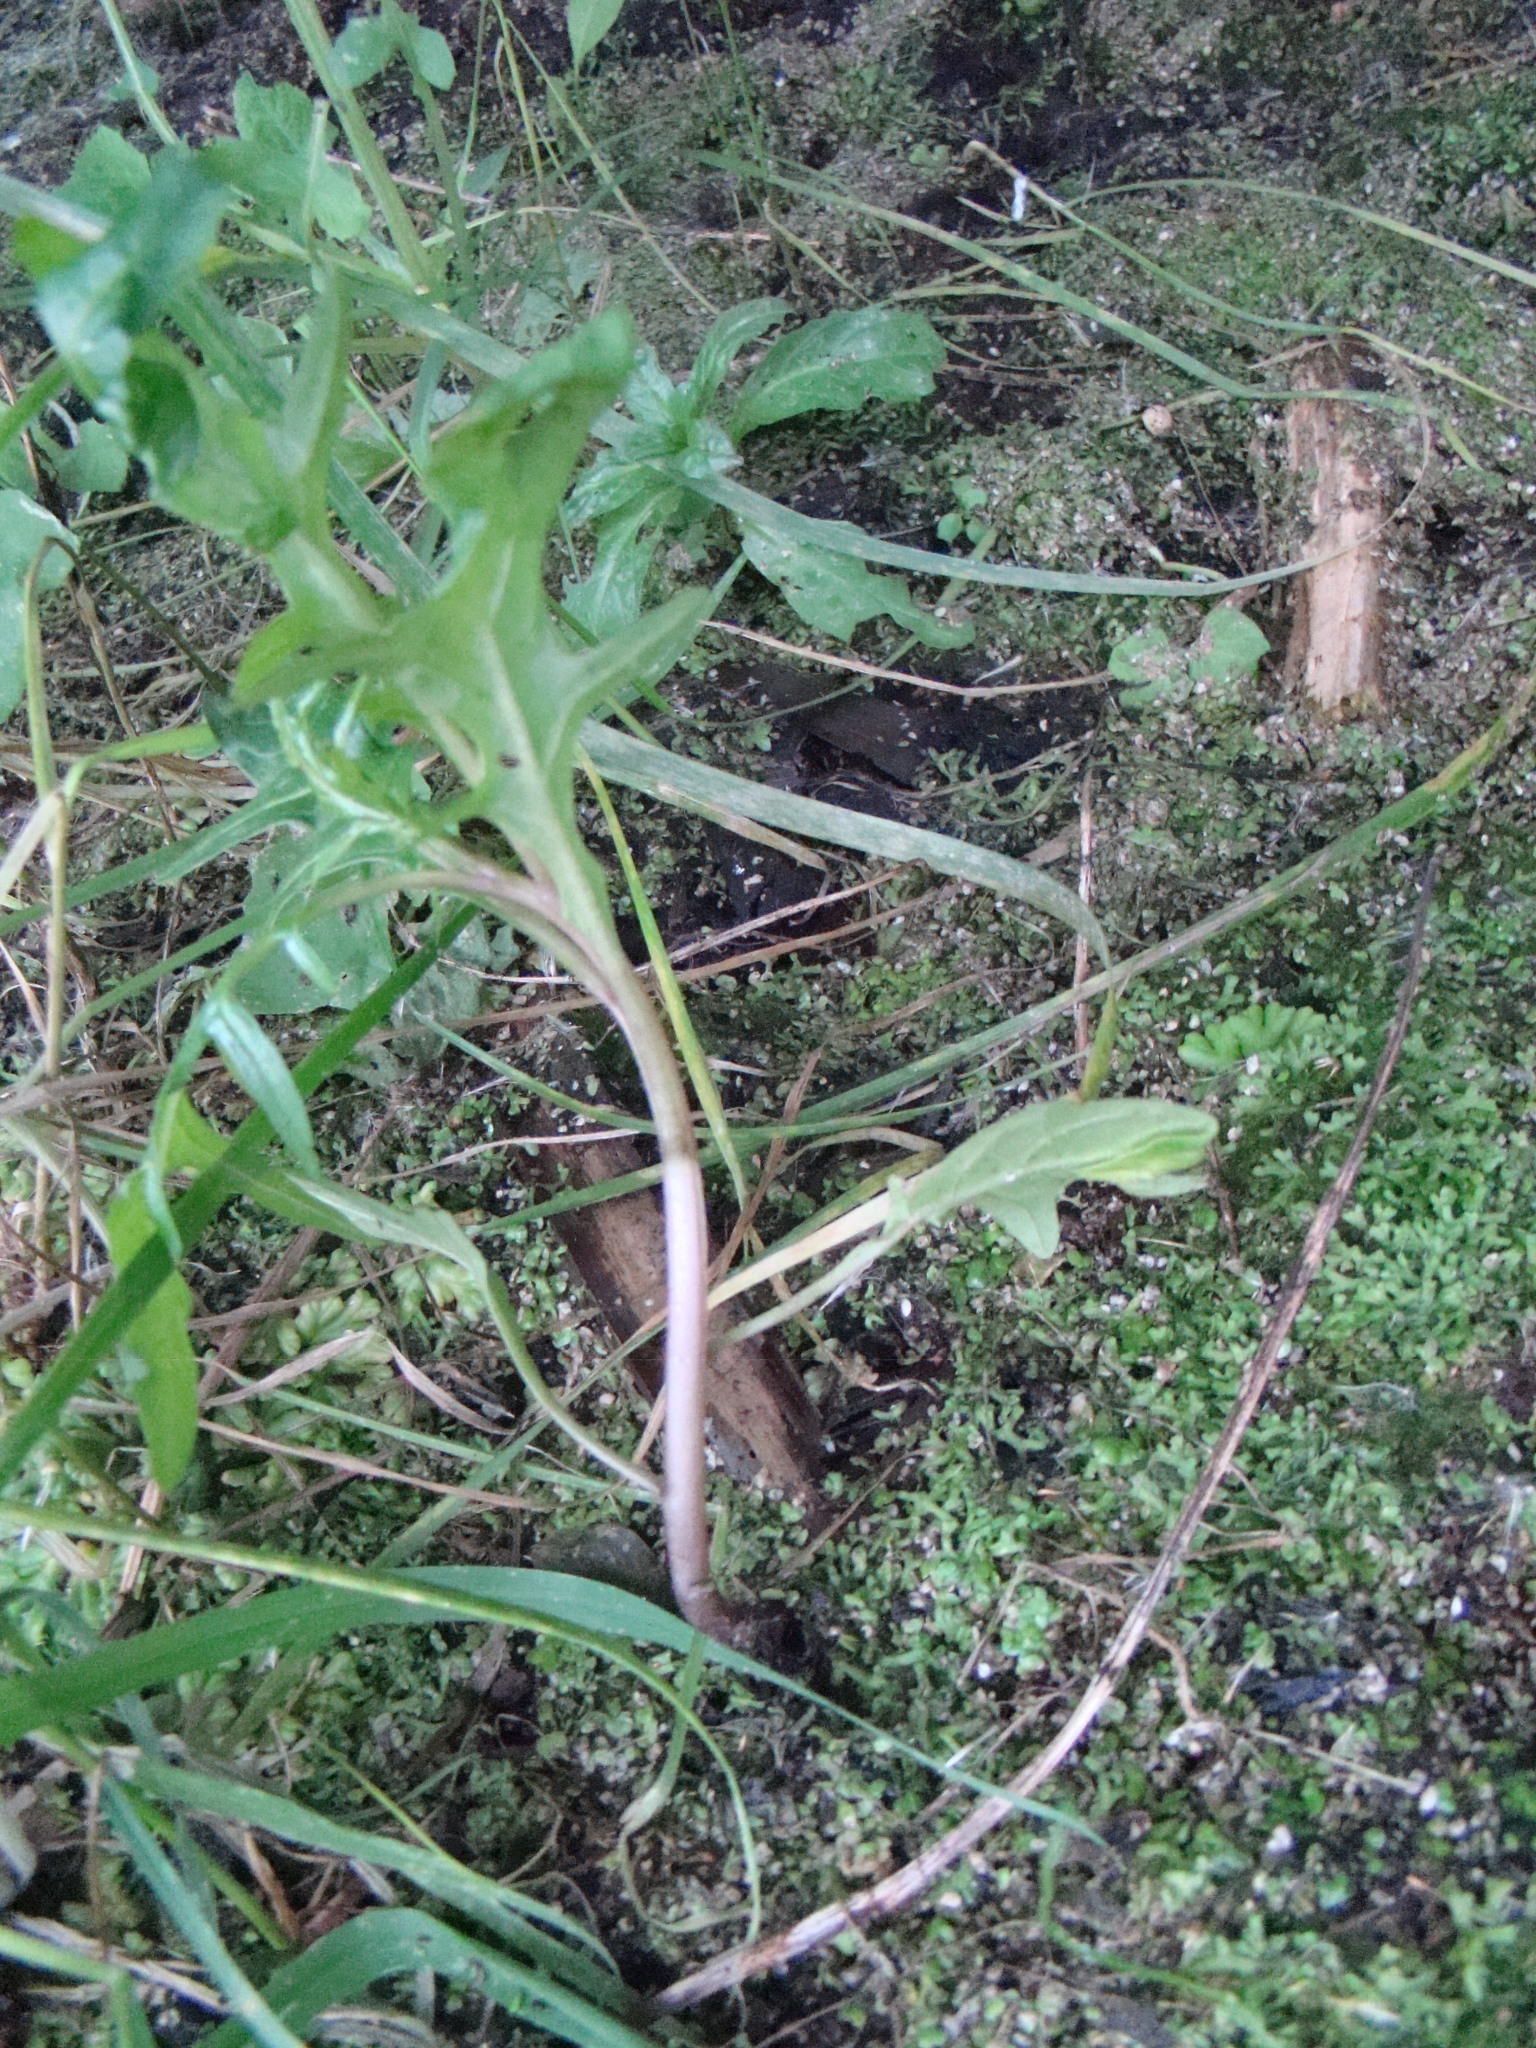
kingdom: Plantae
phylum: Tracheophyta
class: Magnoliopsida
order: Solanales
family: Solanaceae
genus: Solanum
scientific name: Solanum
